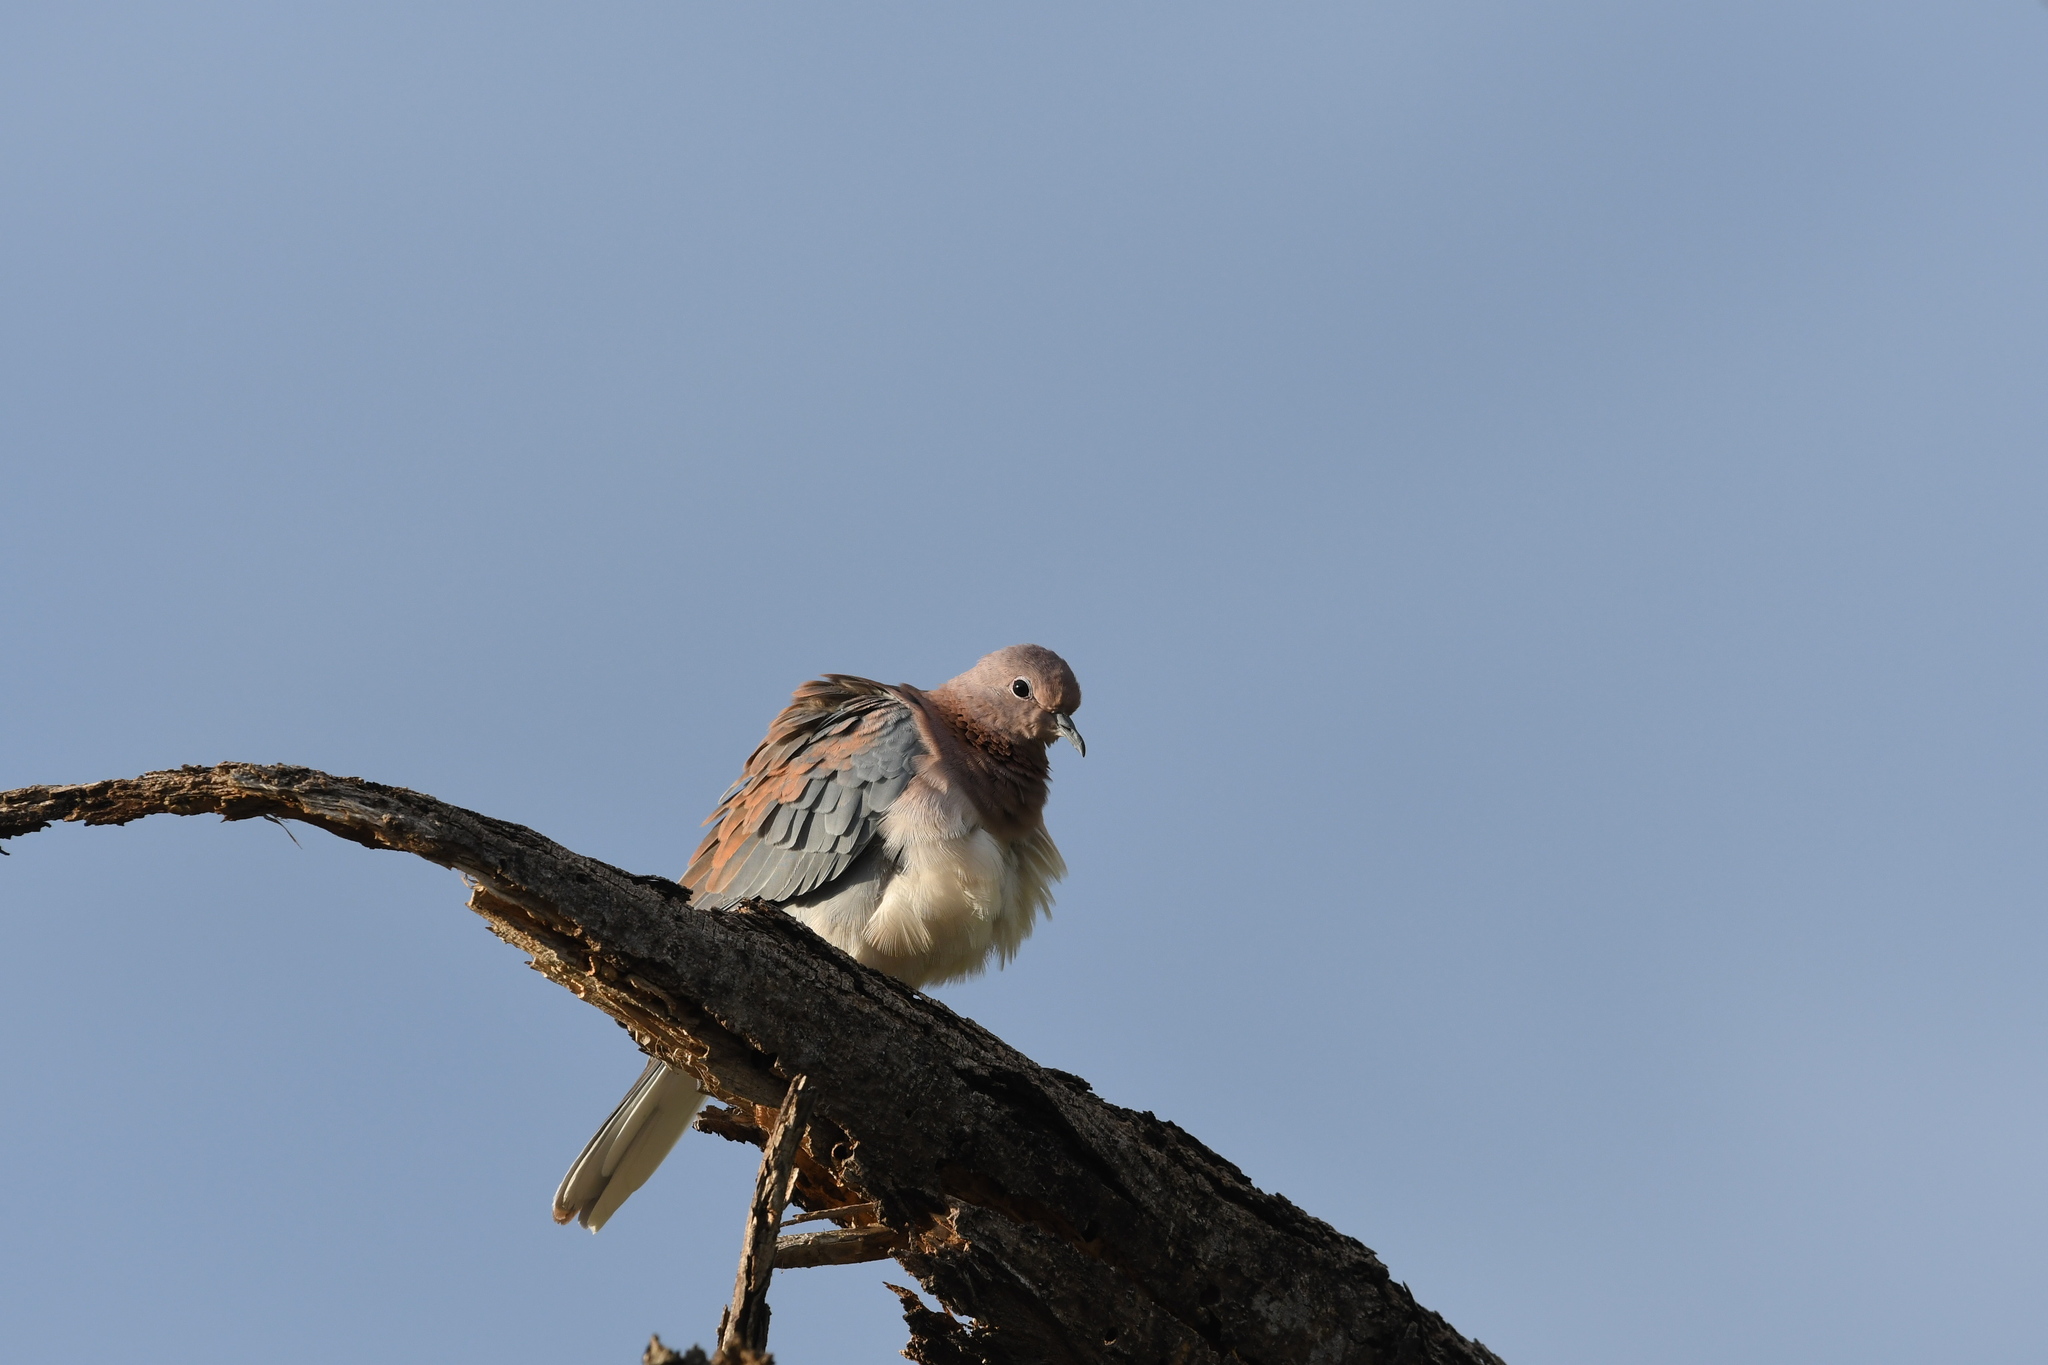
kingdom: Animalia
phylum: Chordata
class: Aves
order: Columbiformes
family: Columbidae
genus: Spilopelia
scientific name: Spilopelia senegalensis
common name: Laughing dove
